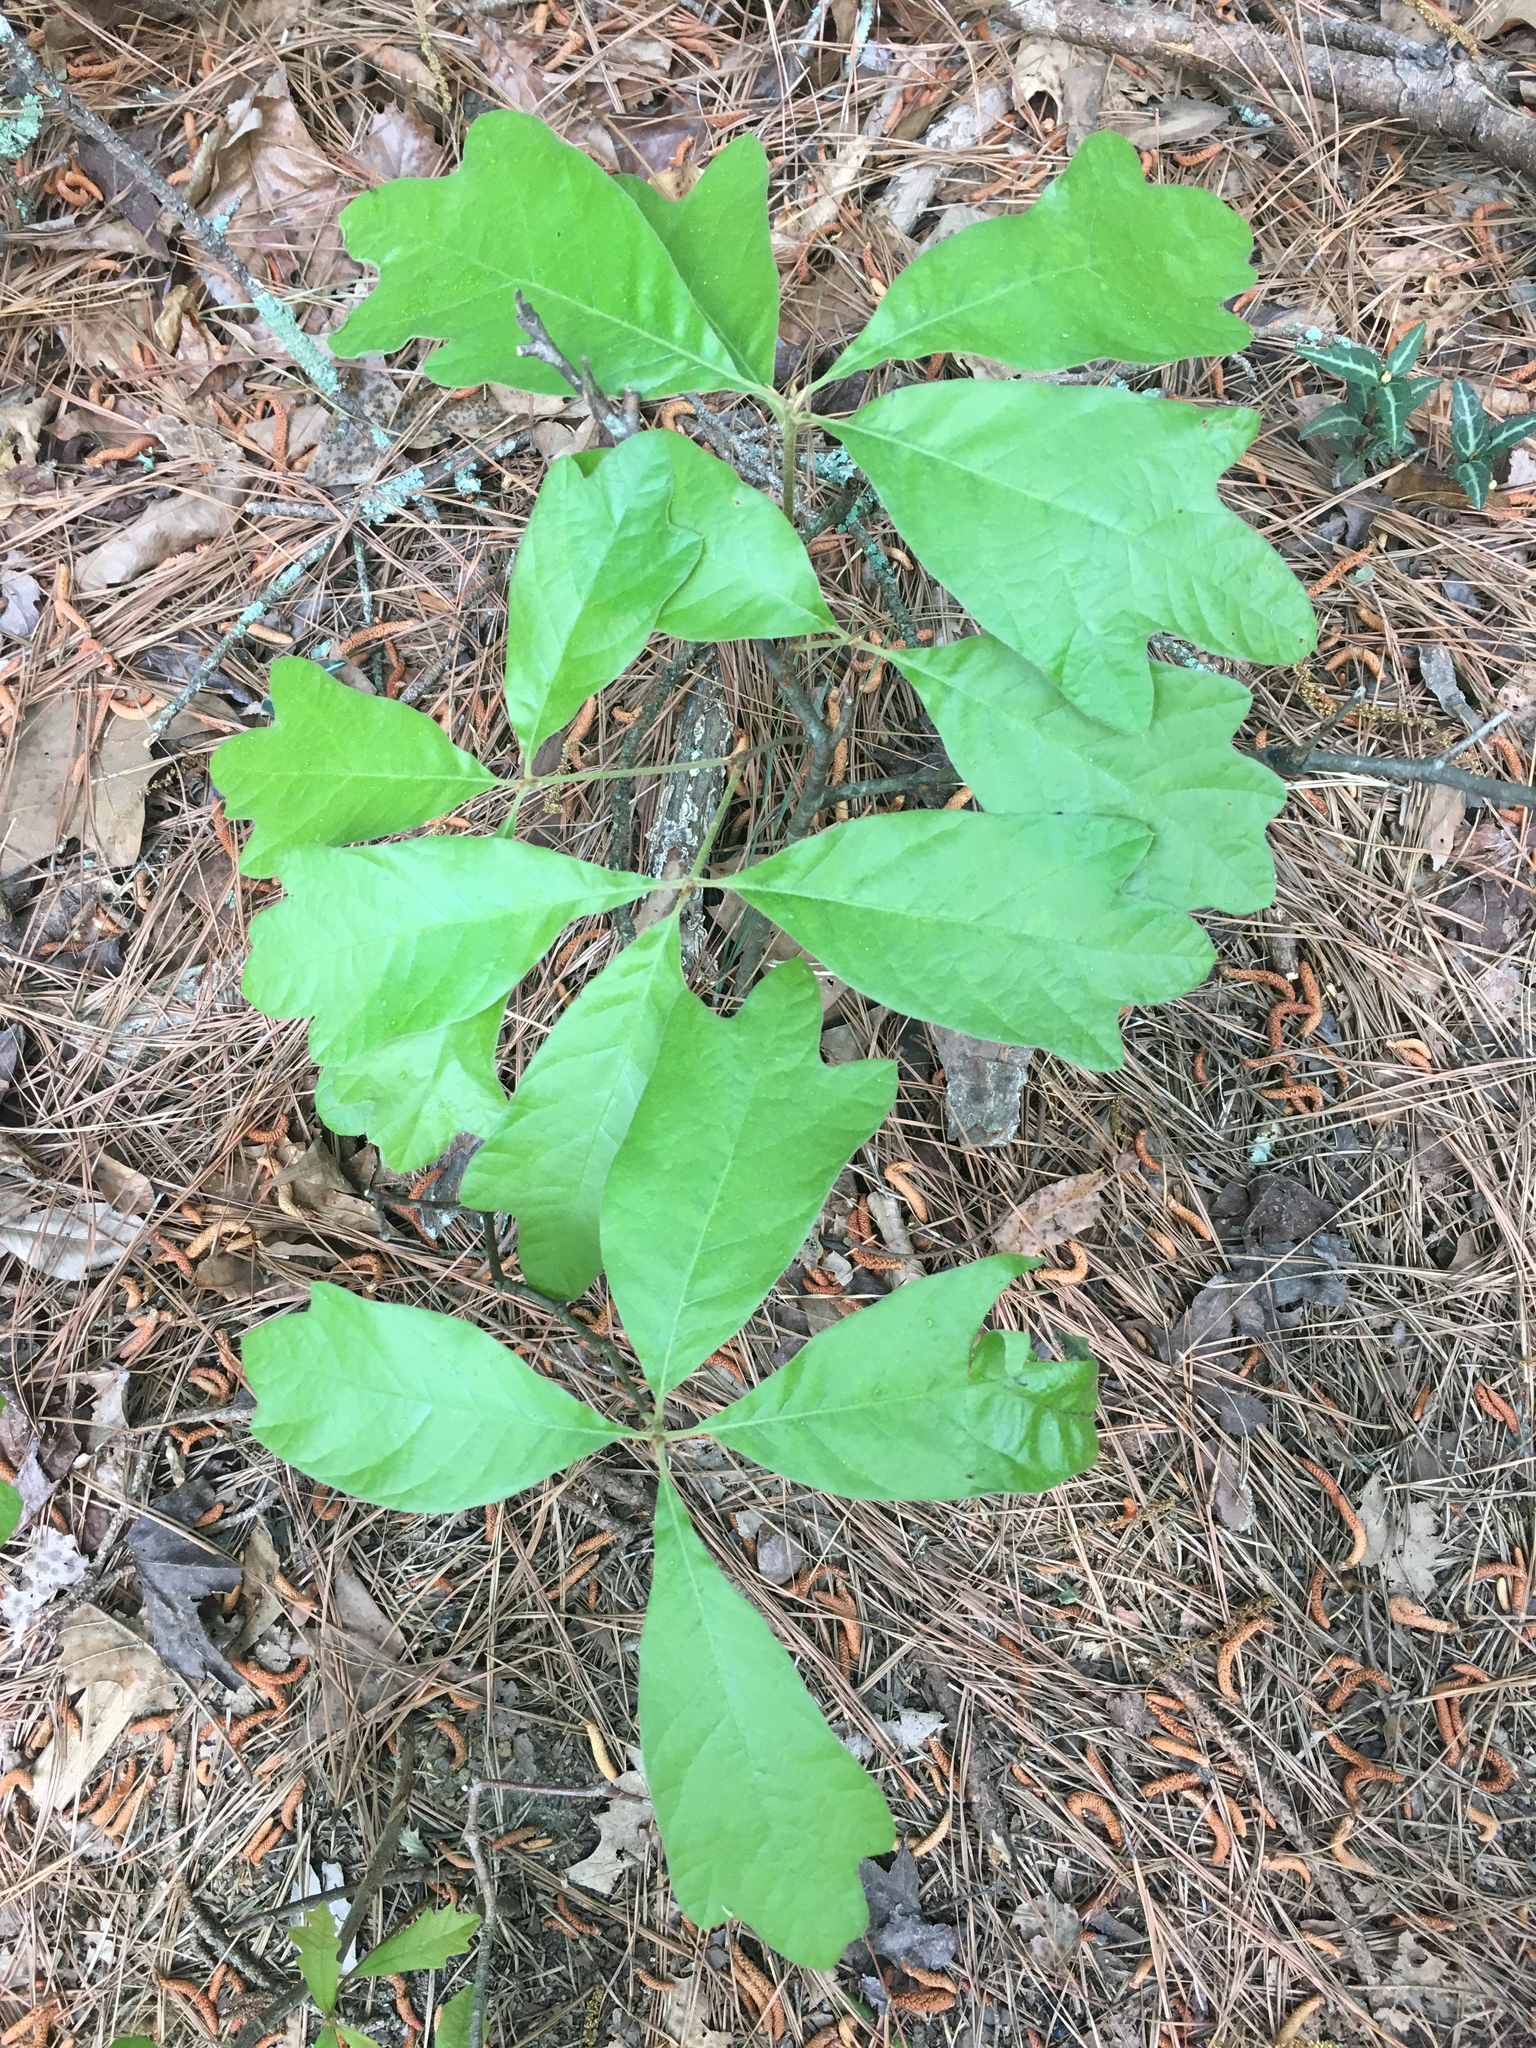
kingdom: Plantae
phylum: Tracheophyta
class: Magnoliopsida
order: Fagales
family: Fagaceae
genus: Quercus
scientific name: Quercus falcata
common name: Southern red oak
